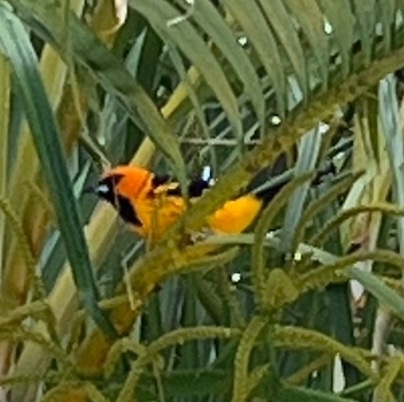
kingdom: Animalia
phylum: Chordata
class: Aves
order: Passeriformes
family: Icteridae
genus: Icterus
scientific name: Icterus pectoralis
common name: Spot-breasted oriole
